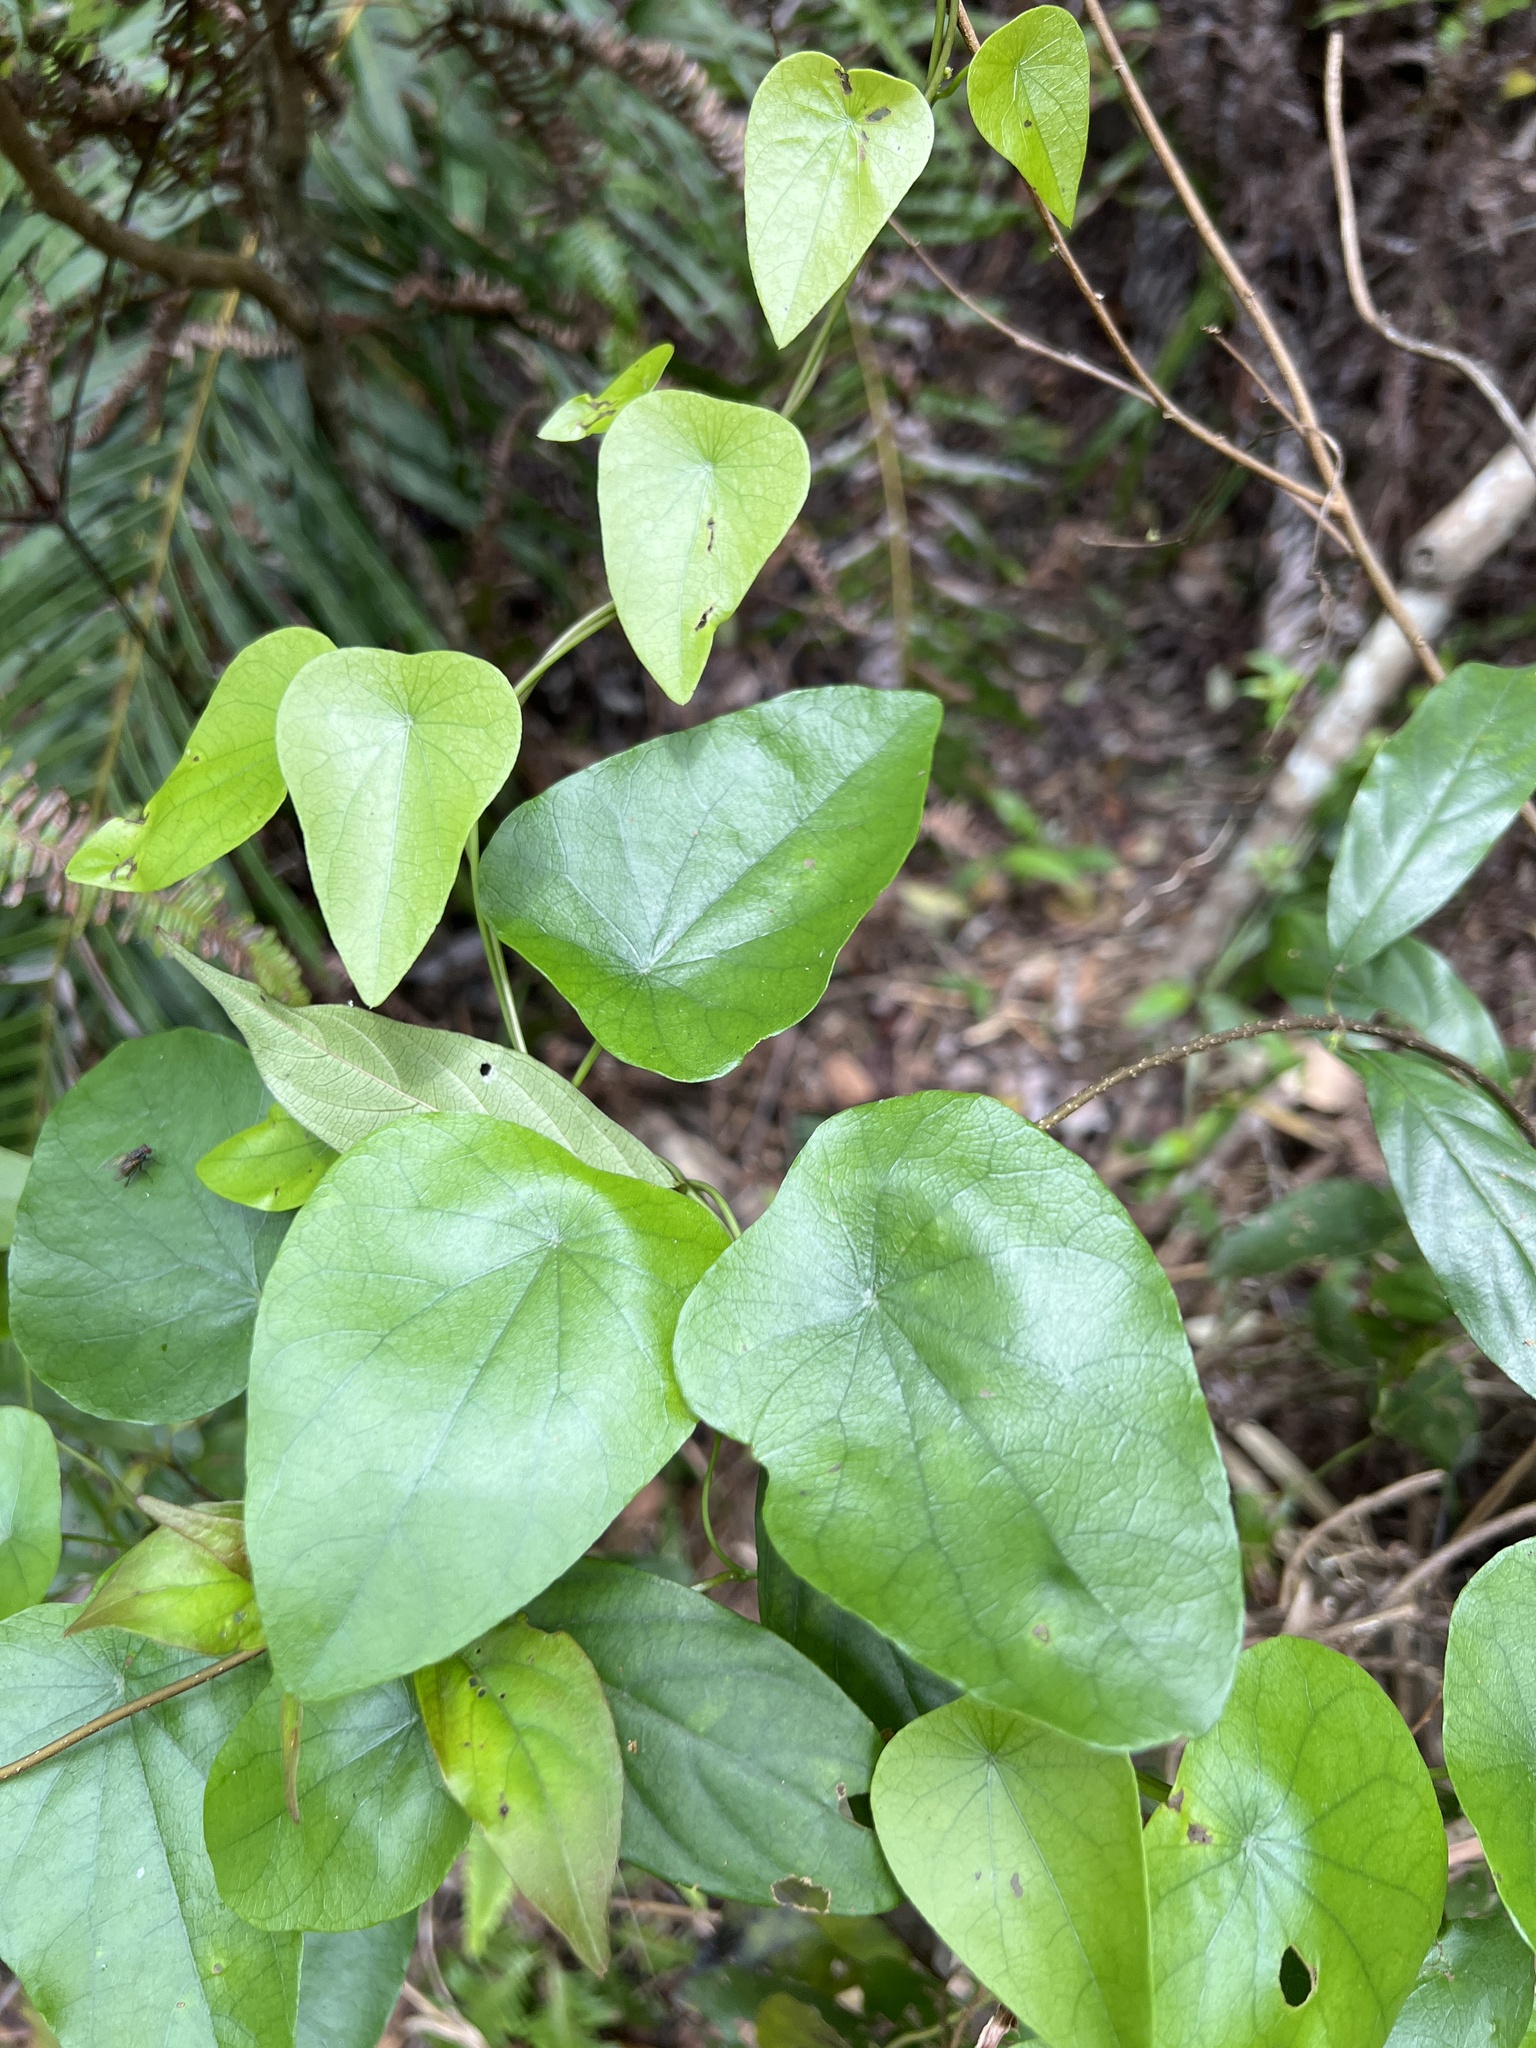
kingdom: Plantae
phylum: Tracheophyta
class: Magnoliopsida
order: Ranunculales
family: Menispermaceae
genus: Stephania
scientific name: Stephania longa
